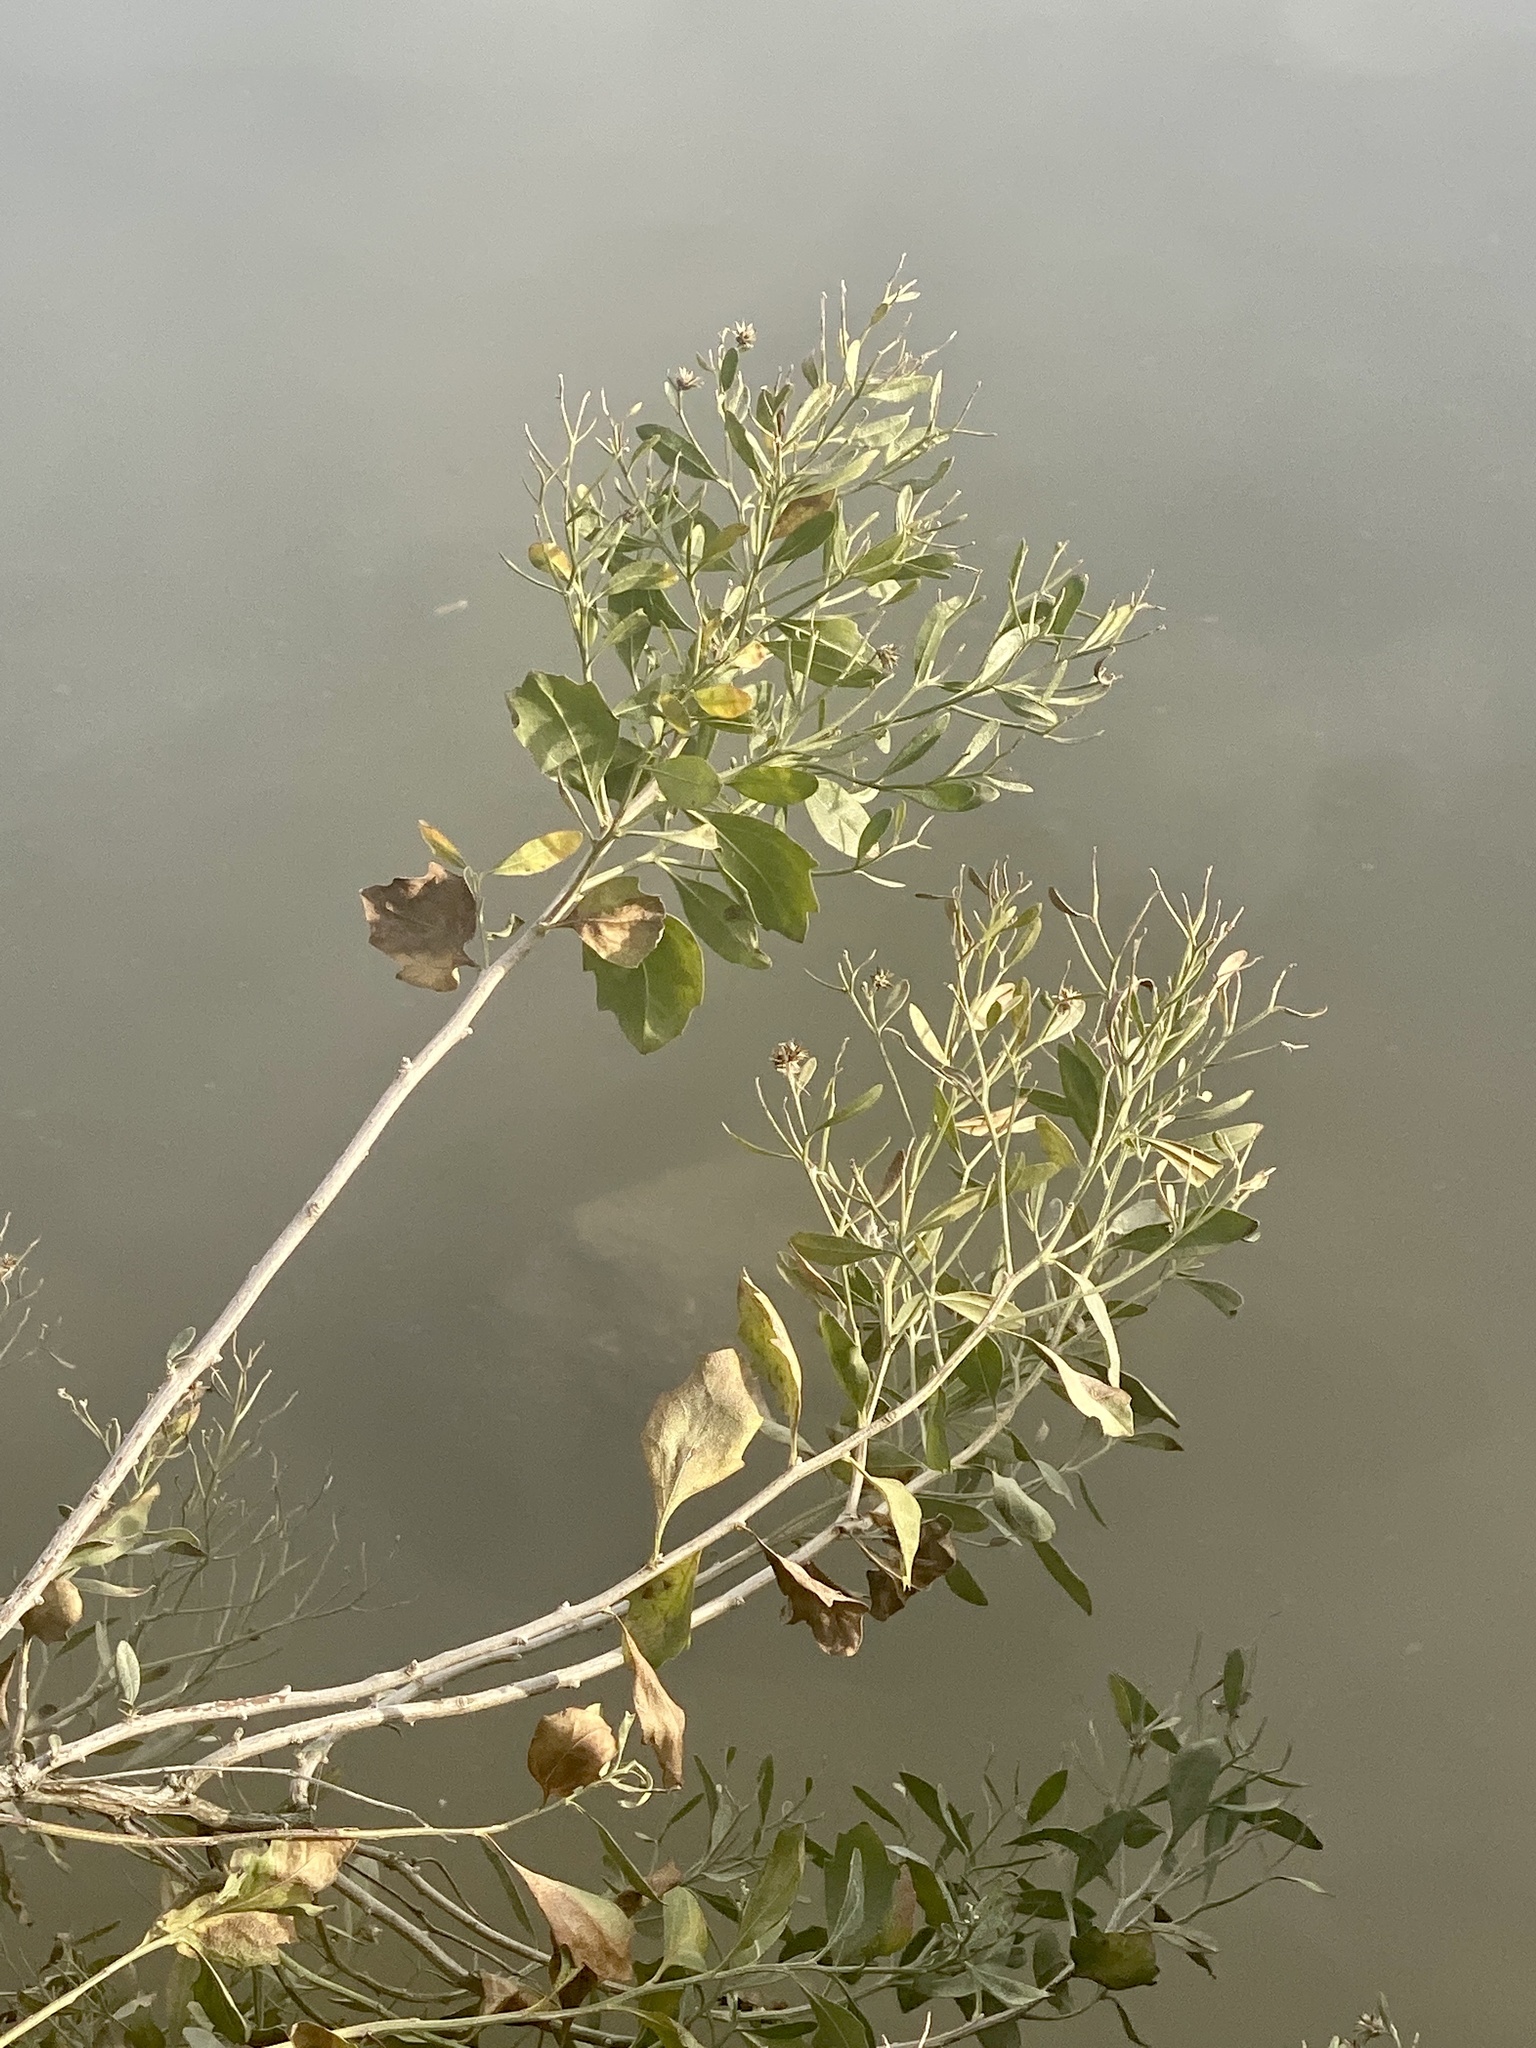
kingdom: Plantae
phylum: Tracheophyta
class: Magnoliopsida
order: Asterales
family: Asteraceae
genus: Baccharis
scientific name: Baccharis halimifolia
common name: Eastern baccharis
